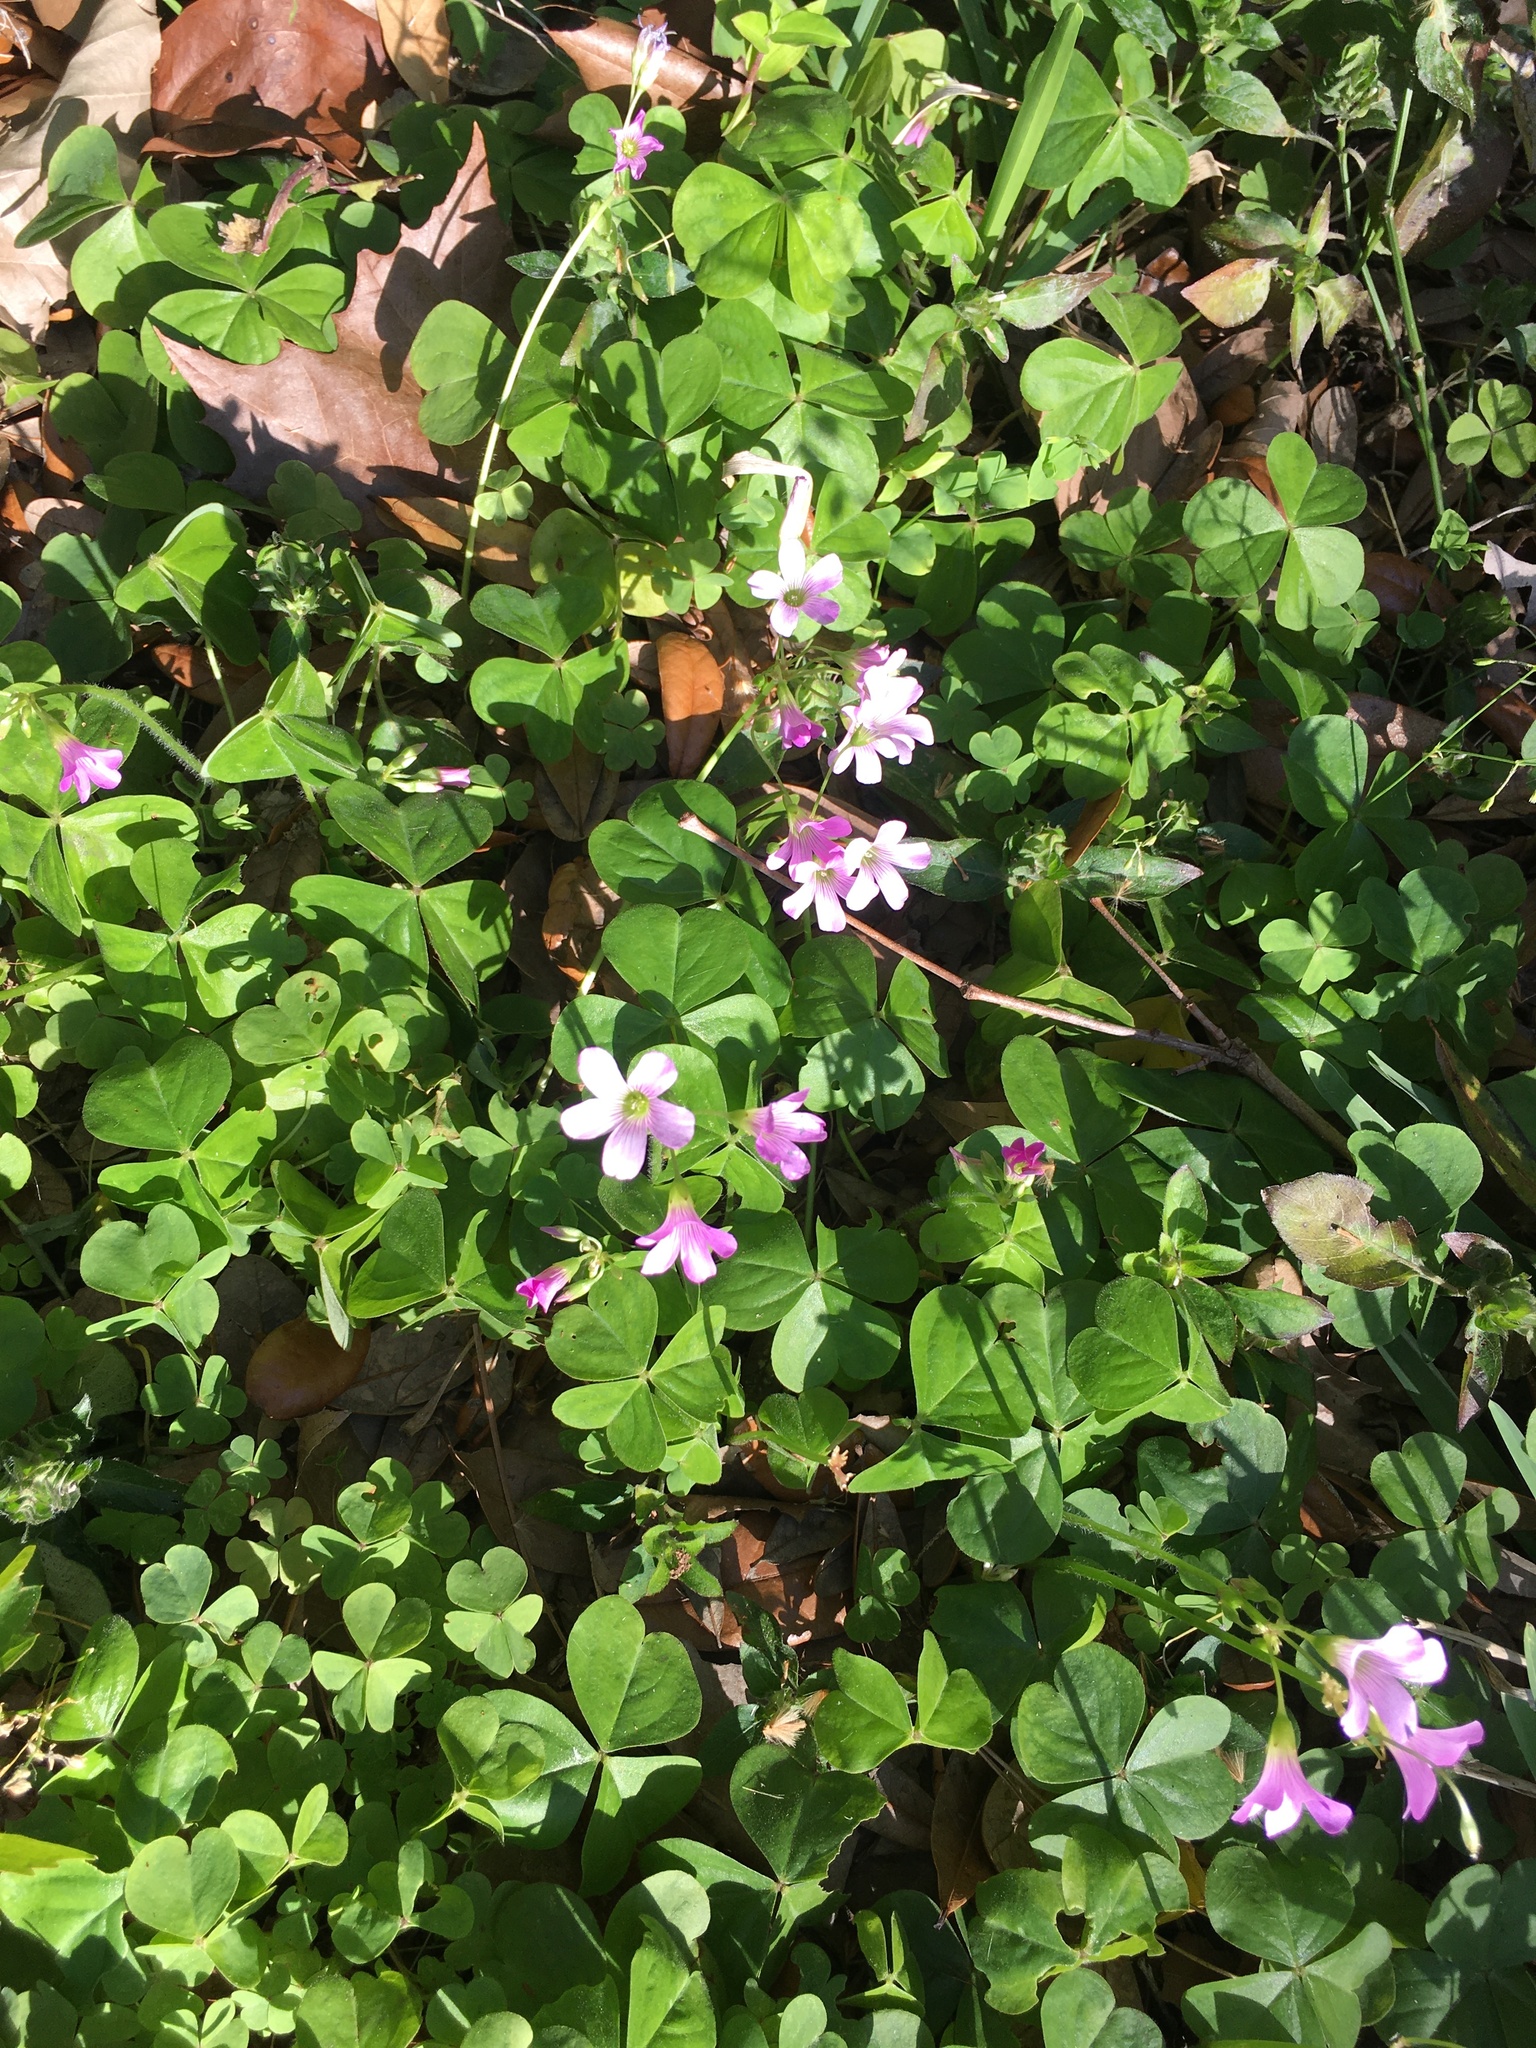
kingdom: Plantae
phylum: Tracheophyta
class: Magnoliopsida
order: Oxalidales
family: Oxalidaceae
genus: Oxalis
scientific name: Oxalis debilis
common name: Large-flowered pink-sorrel
